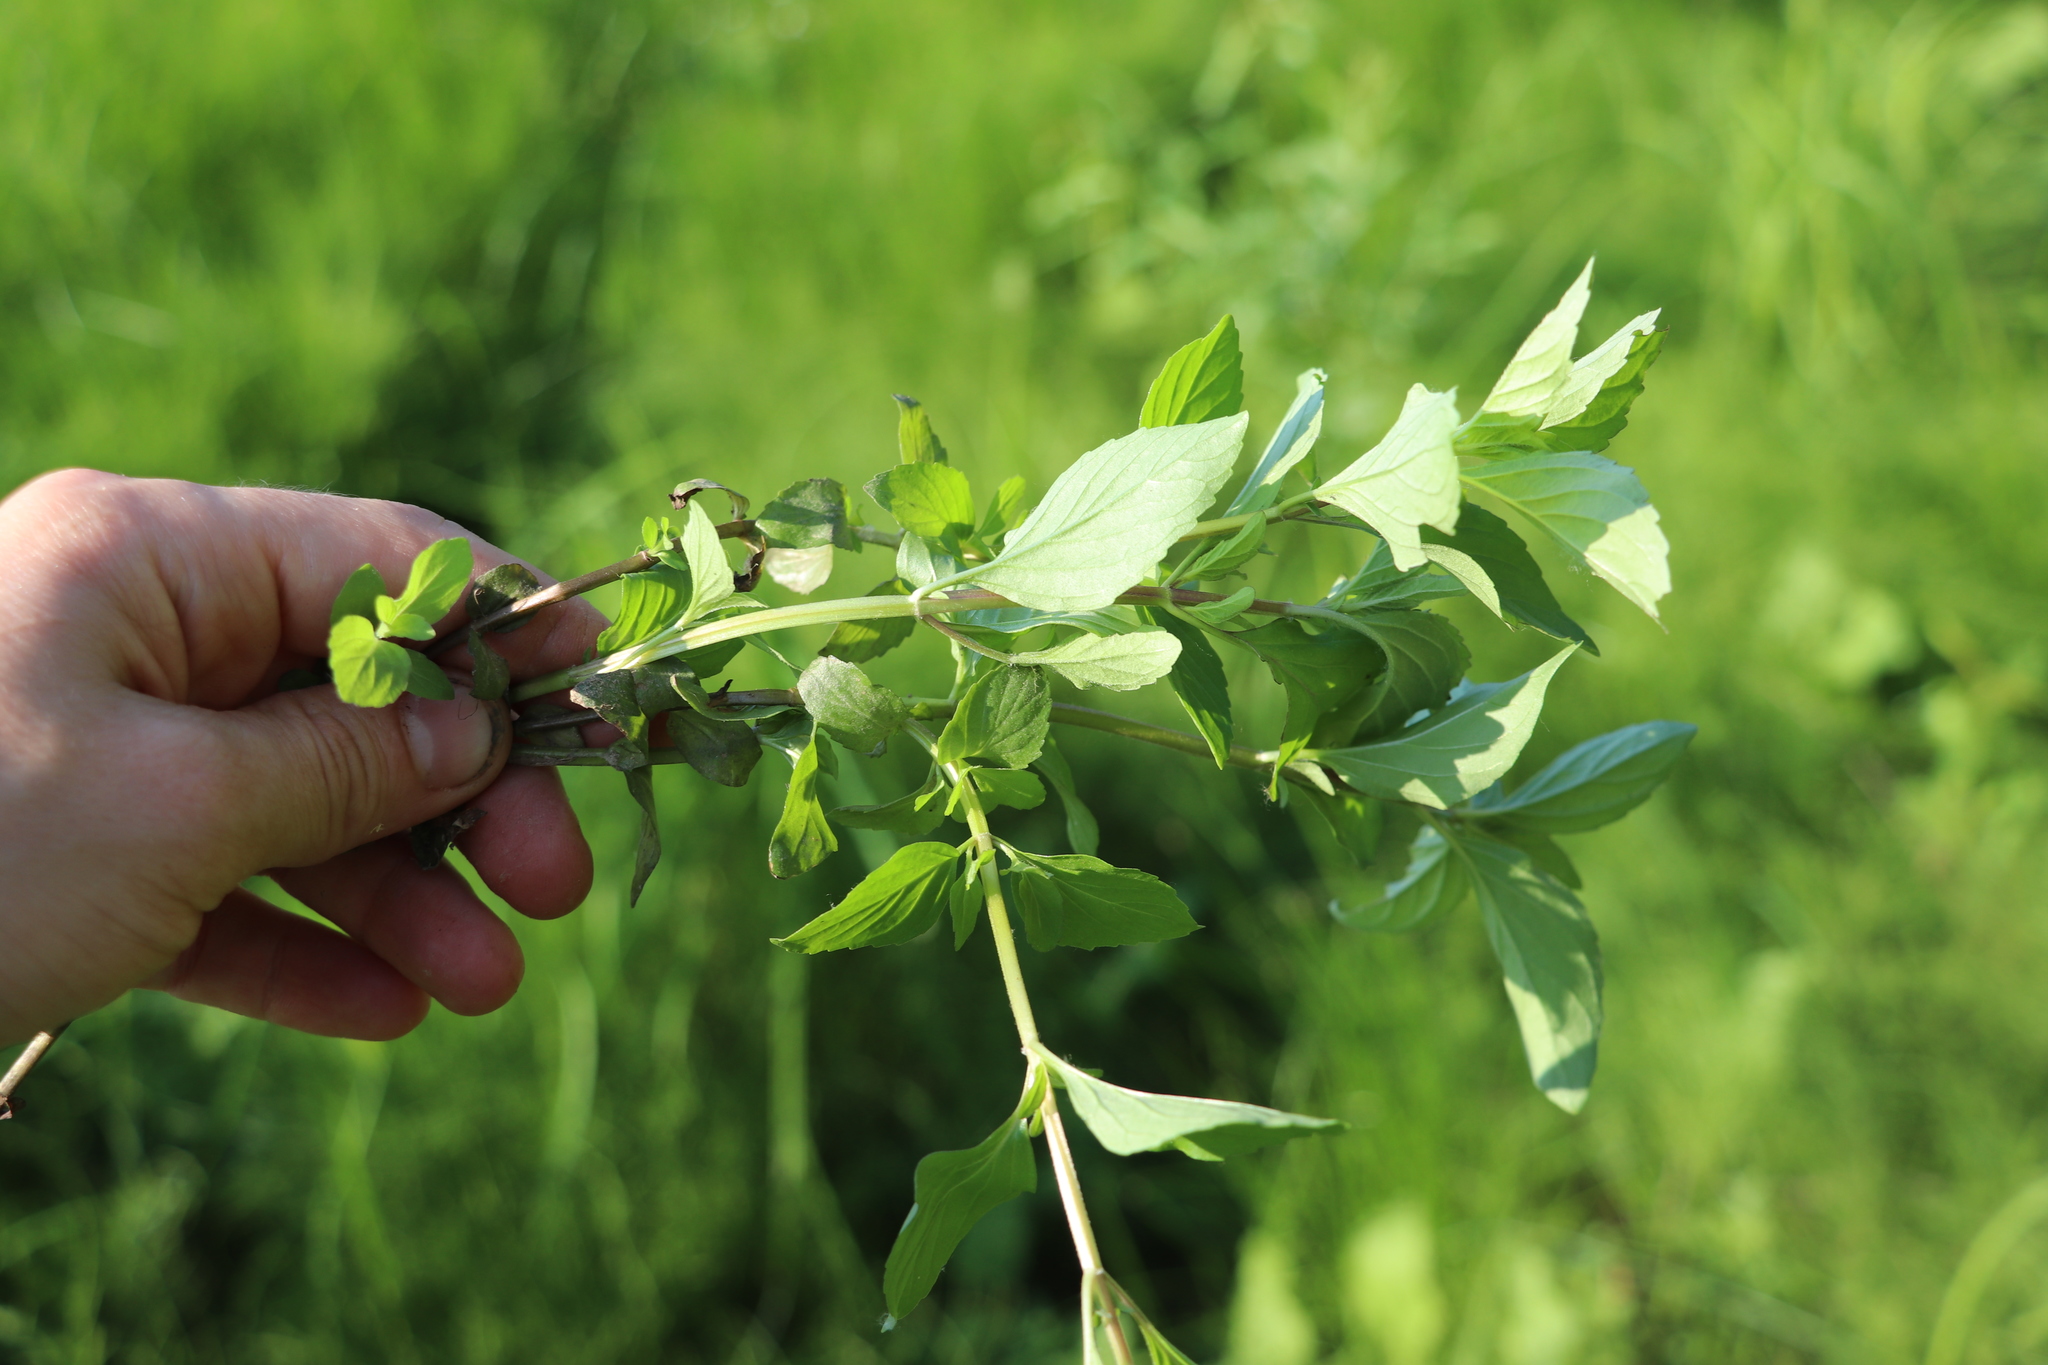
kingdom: Plantae
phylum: Tracheophyta
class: Magnoliopsida
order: Lamiales
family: Lamiaceae
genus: Mentha
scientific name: Mentha arvensis
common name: Corn mint
